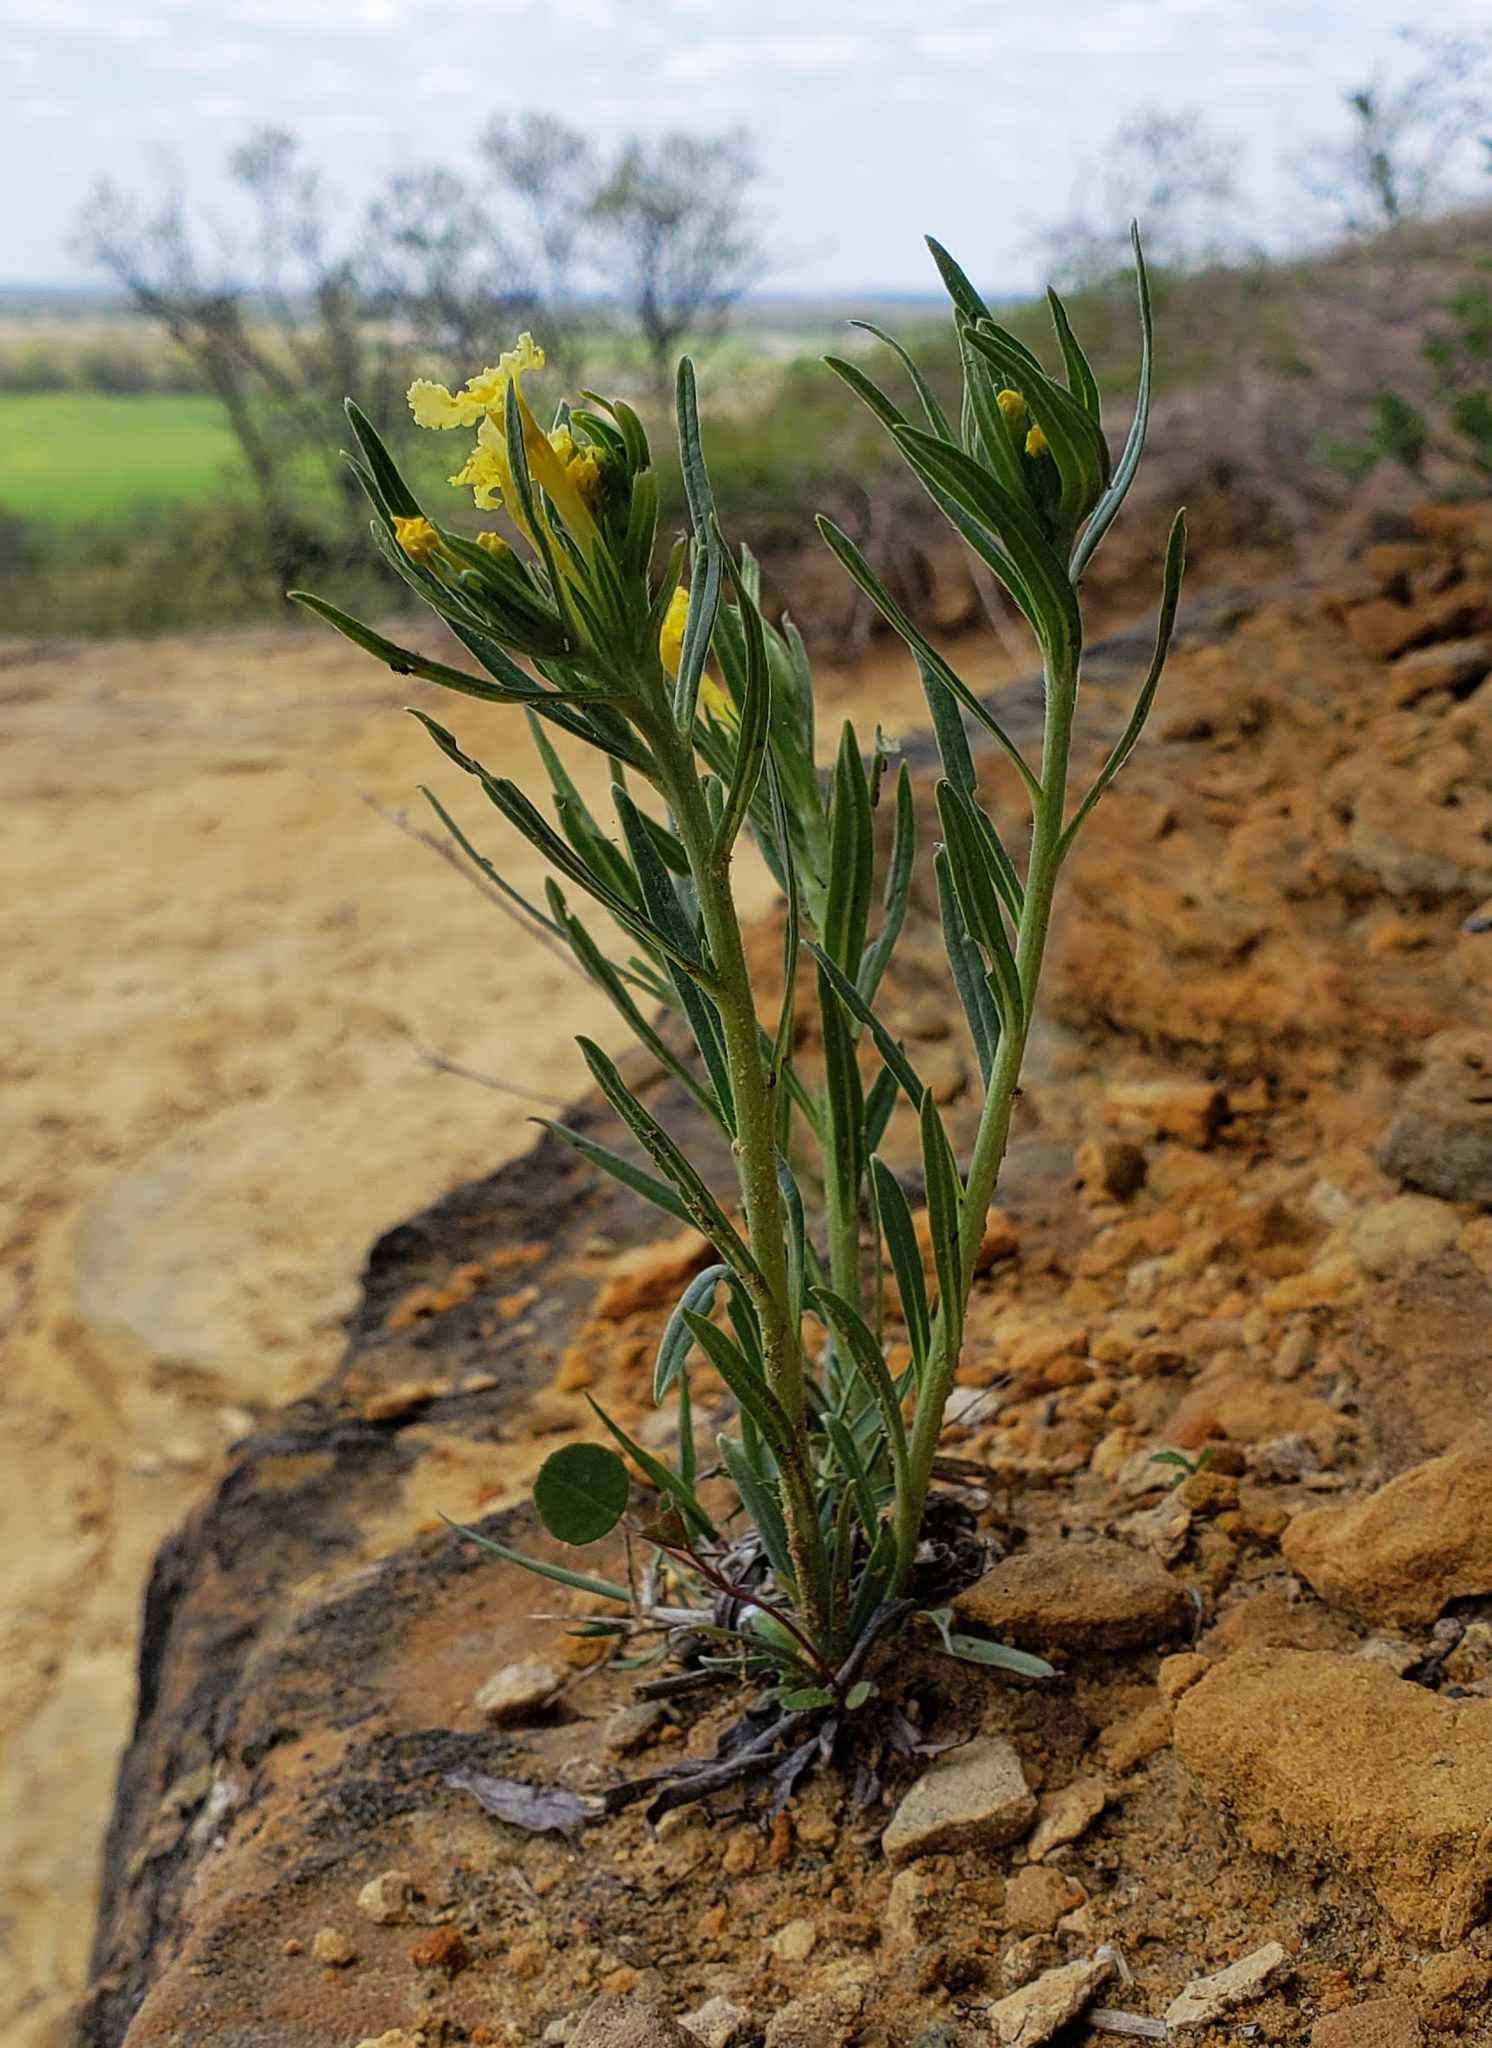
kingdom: Plantae
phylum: Tracheophyta
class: Magnoliopsida
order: Boraginales
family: Boraginaceae
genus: Lithospermum
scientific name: Lithospermum incisum
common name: Fringed gromwell
